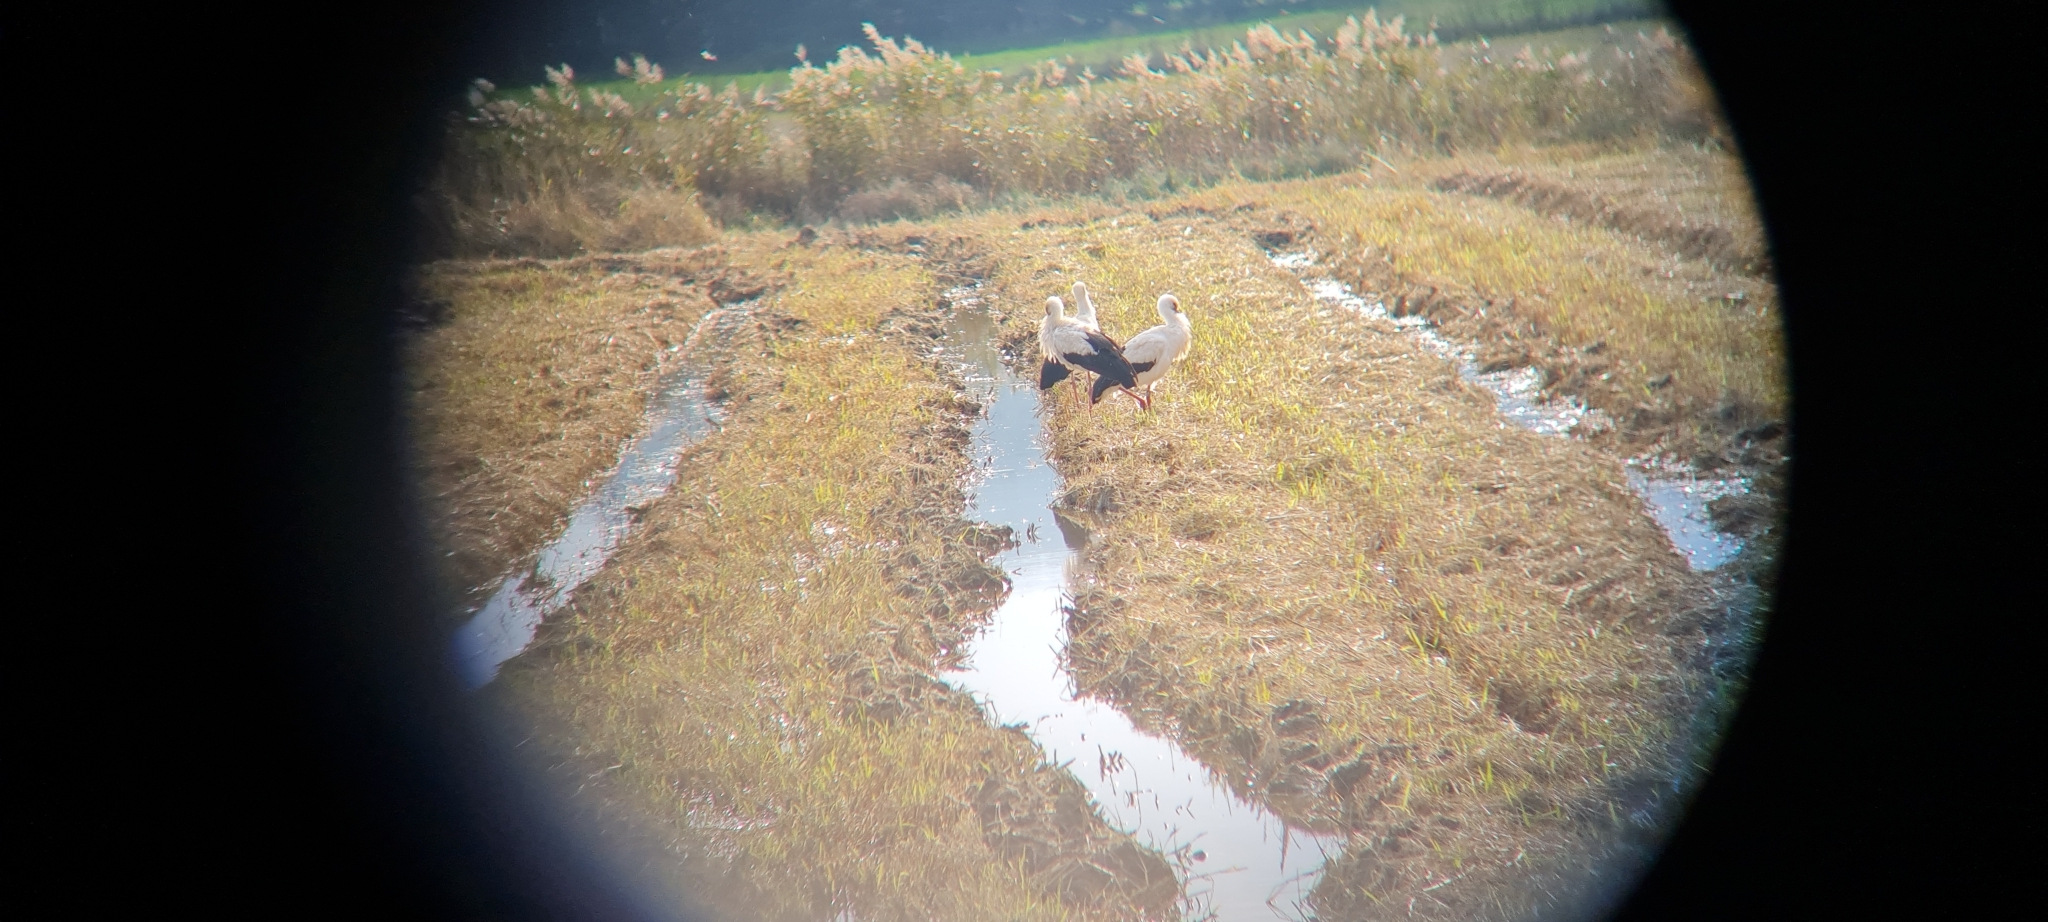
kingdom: Animalia
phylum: Chordata
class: Aves
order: Ciconiiformes
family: Ciconiidae
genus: Ciconia
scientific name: Ciconia ciconia
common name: White stork
